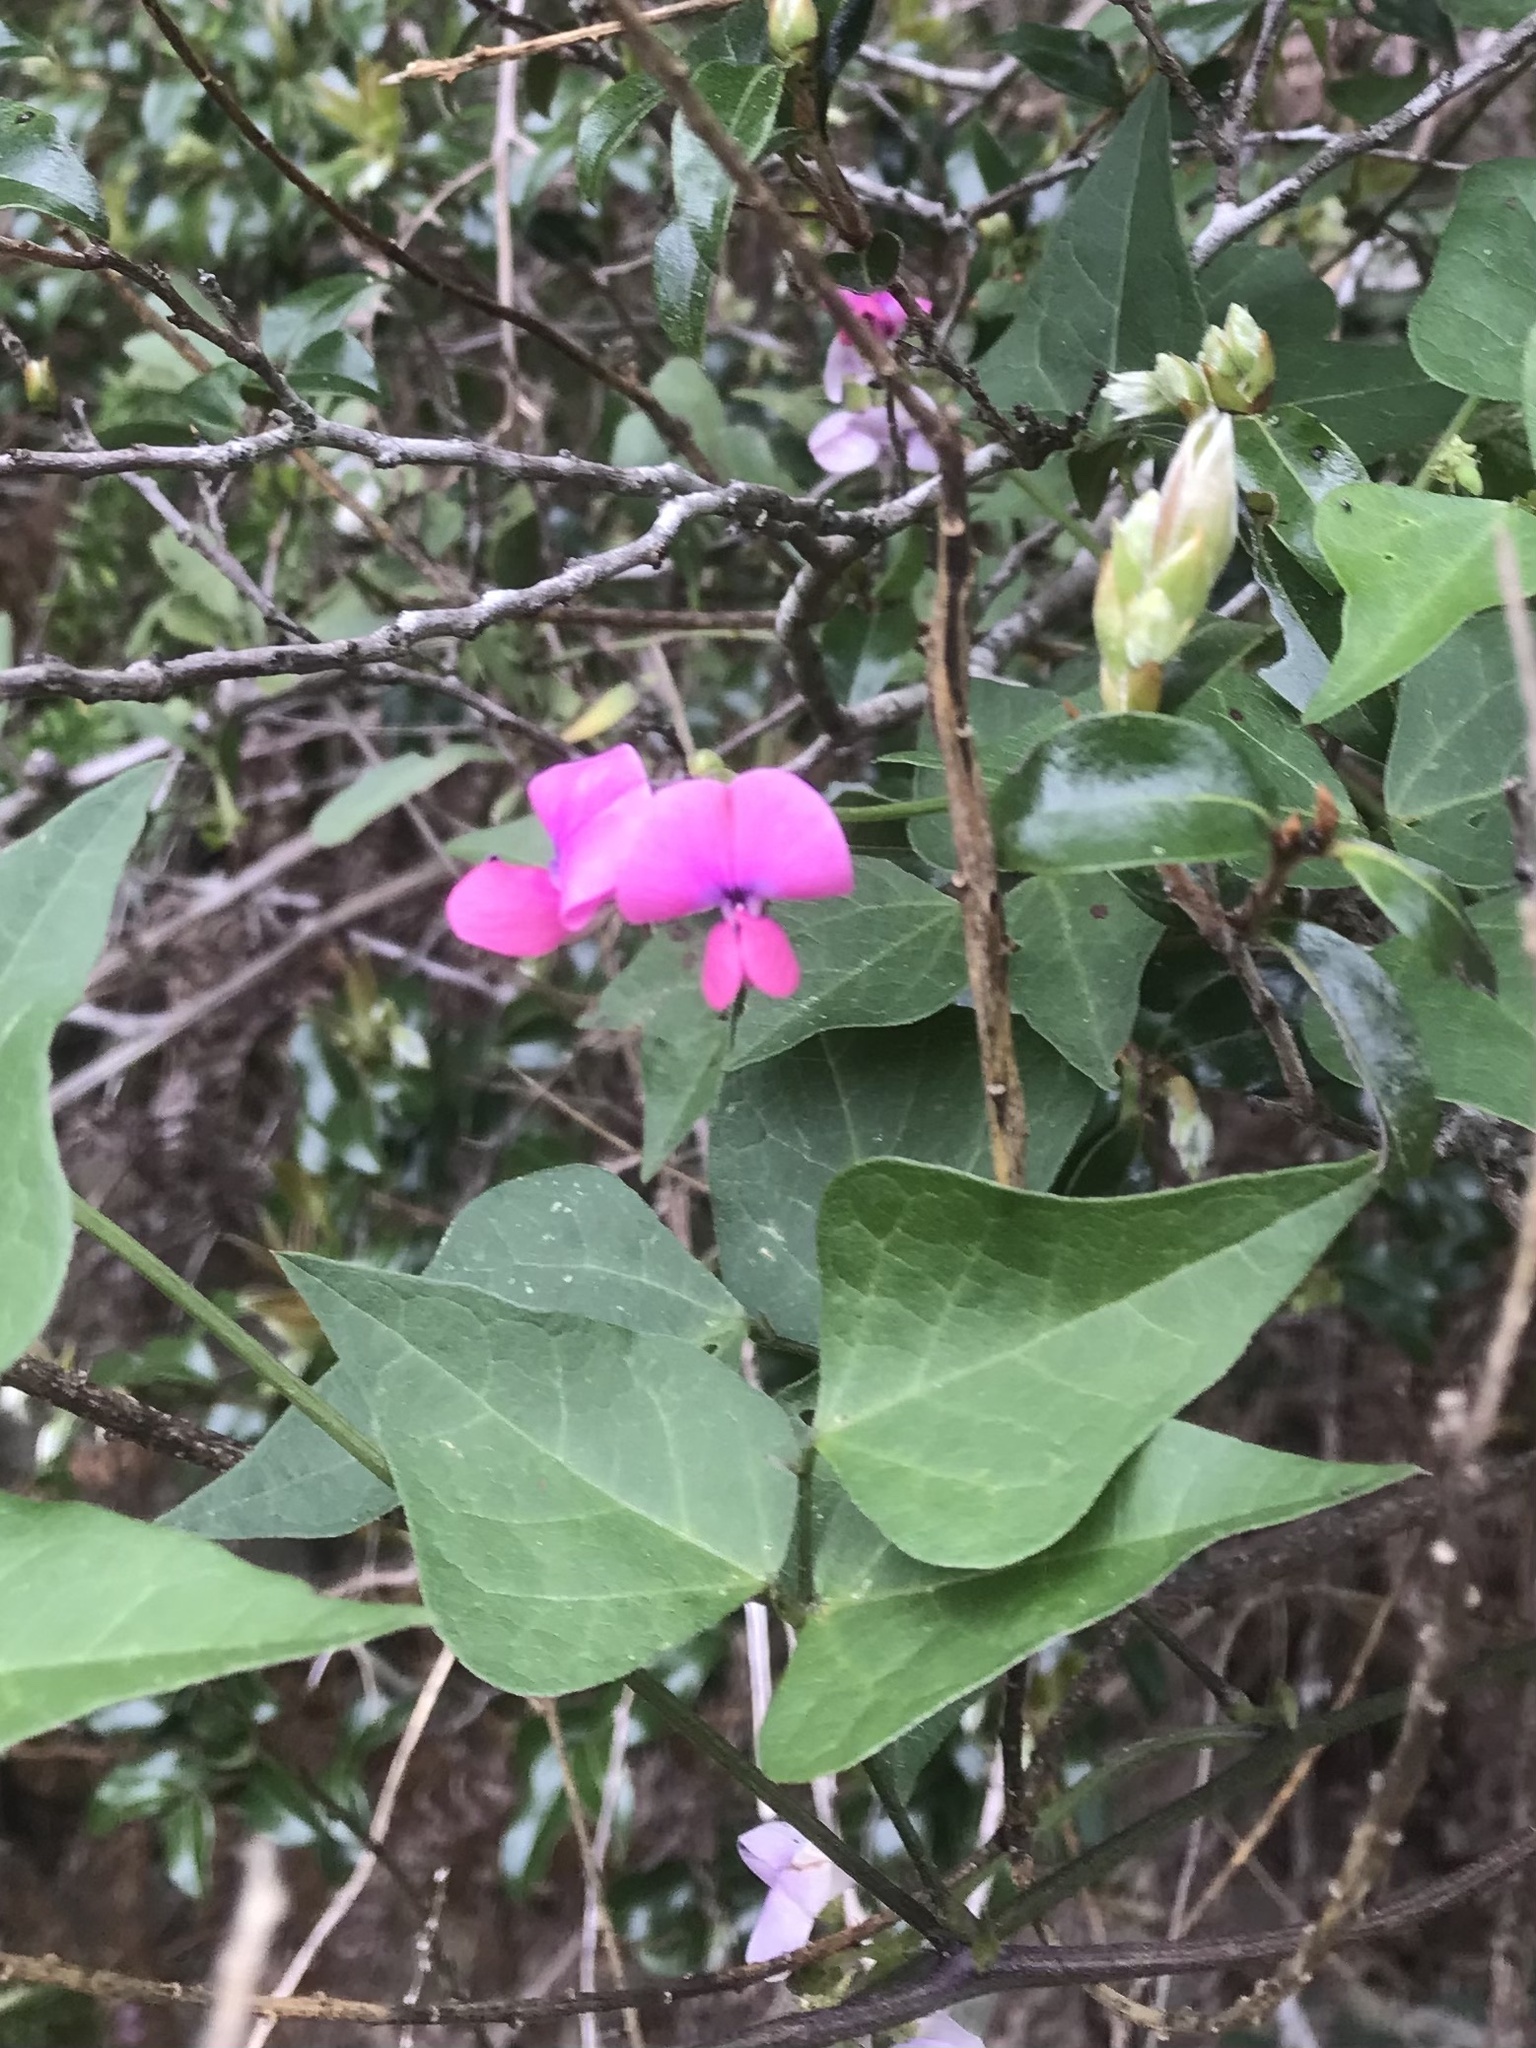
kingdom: Plantae
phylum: Tracheophyta
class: Magnoliopsida
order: Fabales
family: Fabaceae
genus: Dipogon
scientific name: Dipogon lignosus
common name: Okie bean
